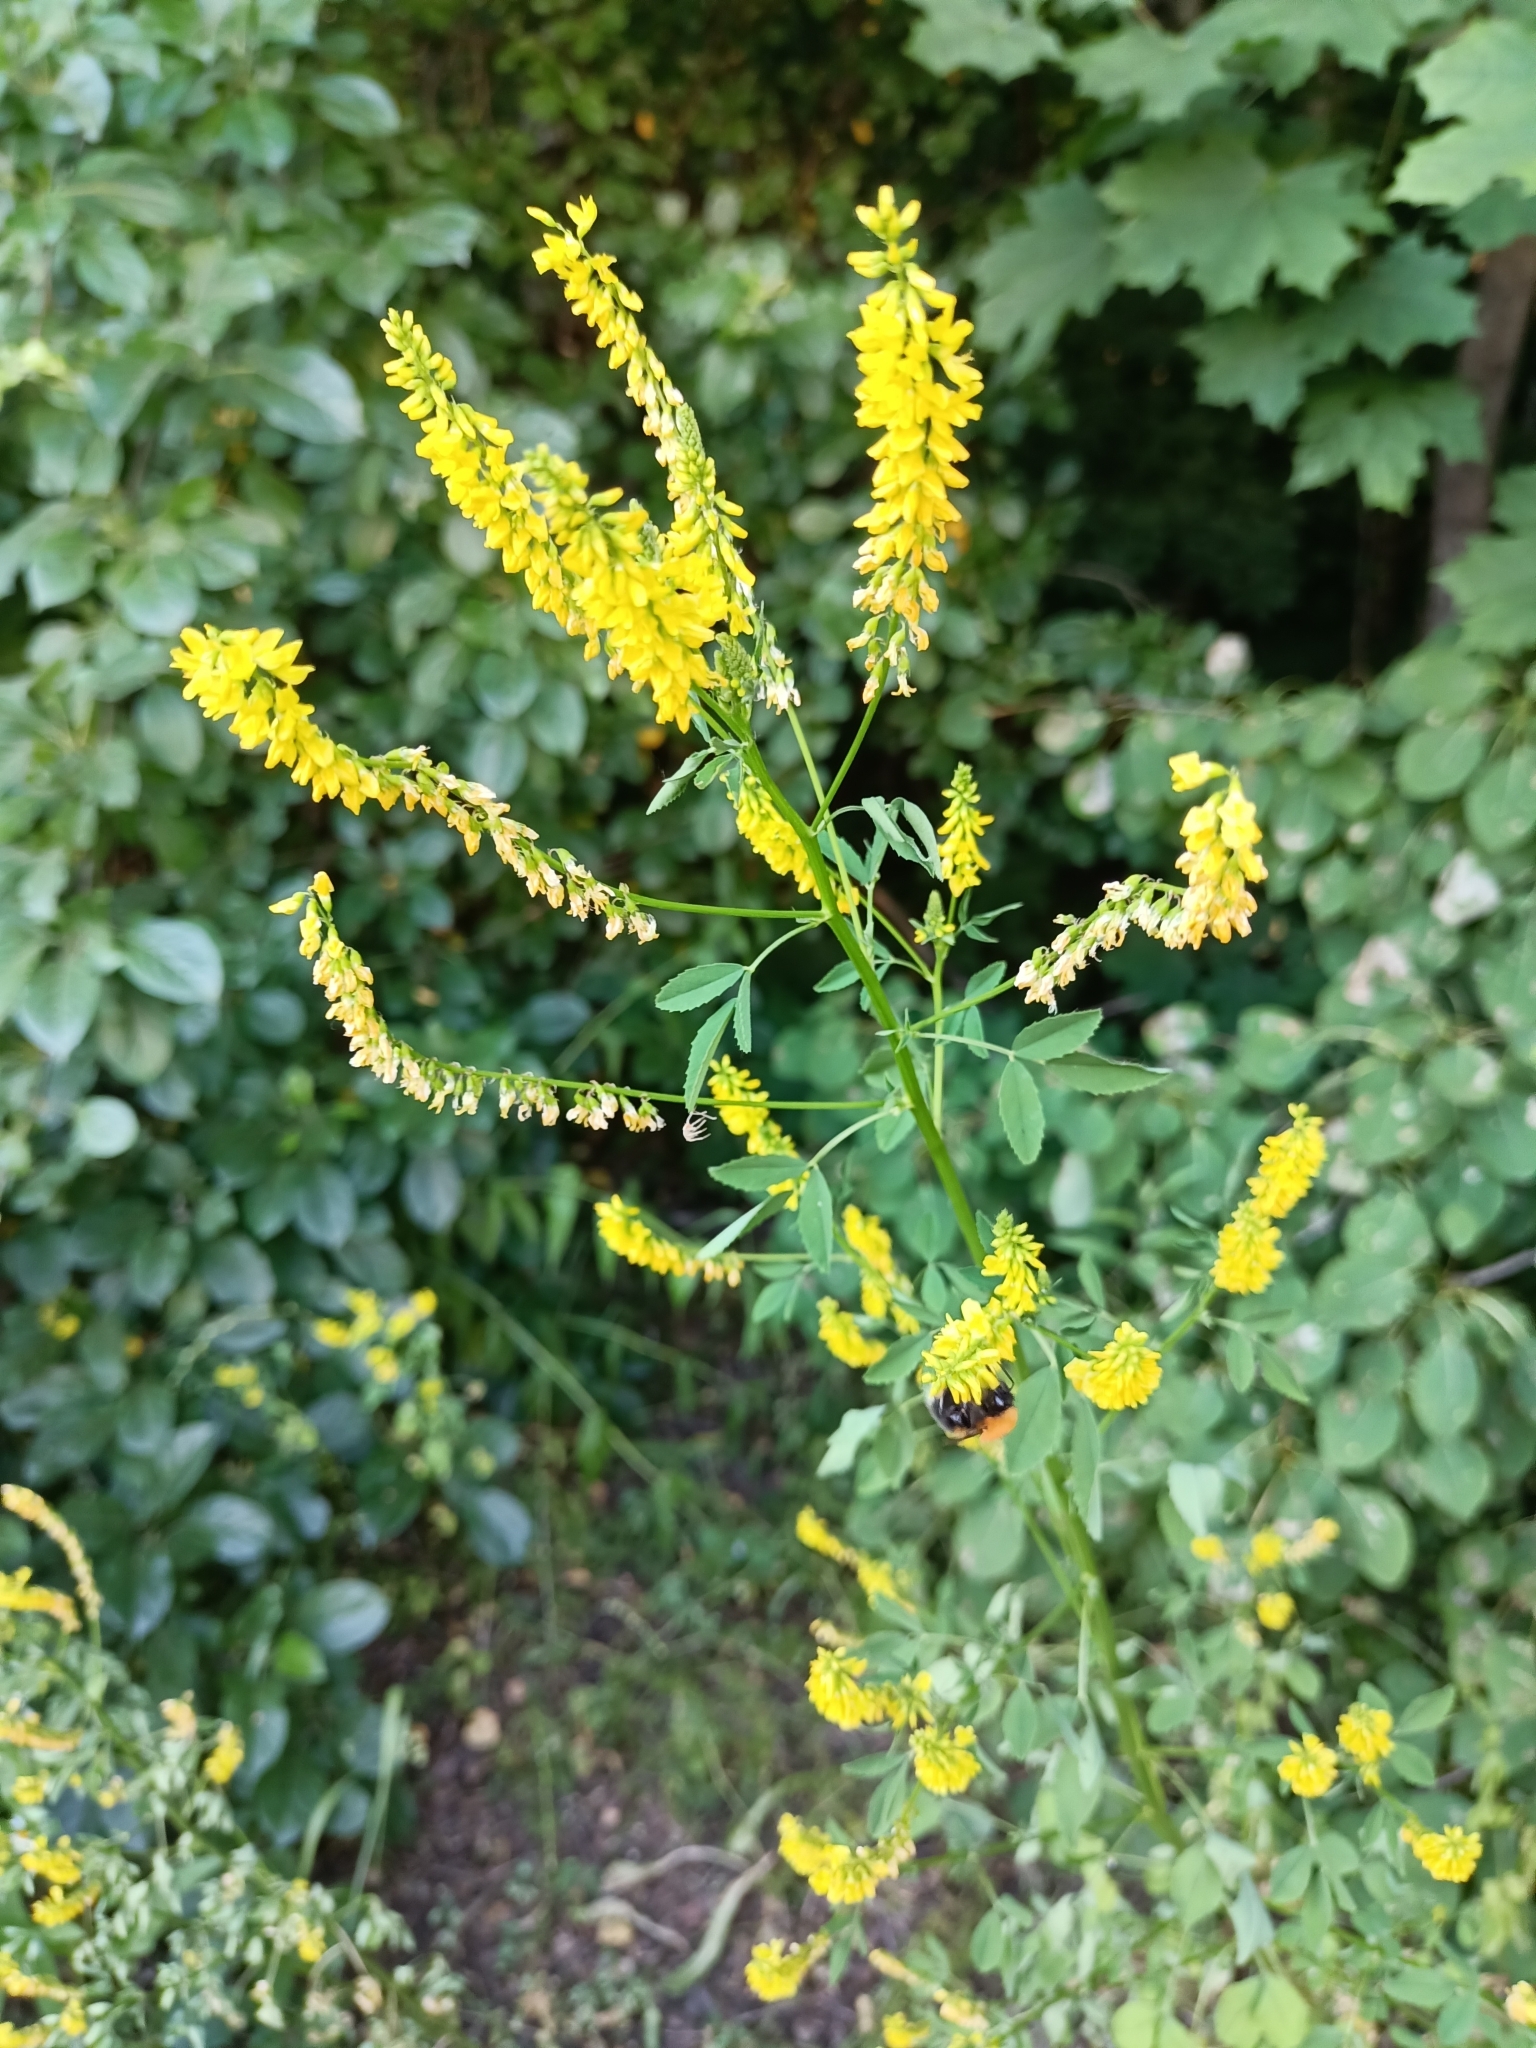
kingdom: Plantae
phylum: Tracheophyta
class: Magnoliopsida
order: Fabales
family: Fabaceae
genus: Melilotus
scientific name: Melilotus officinalis
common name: Sweetclover
